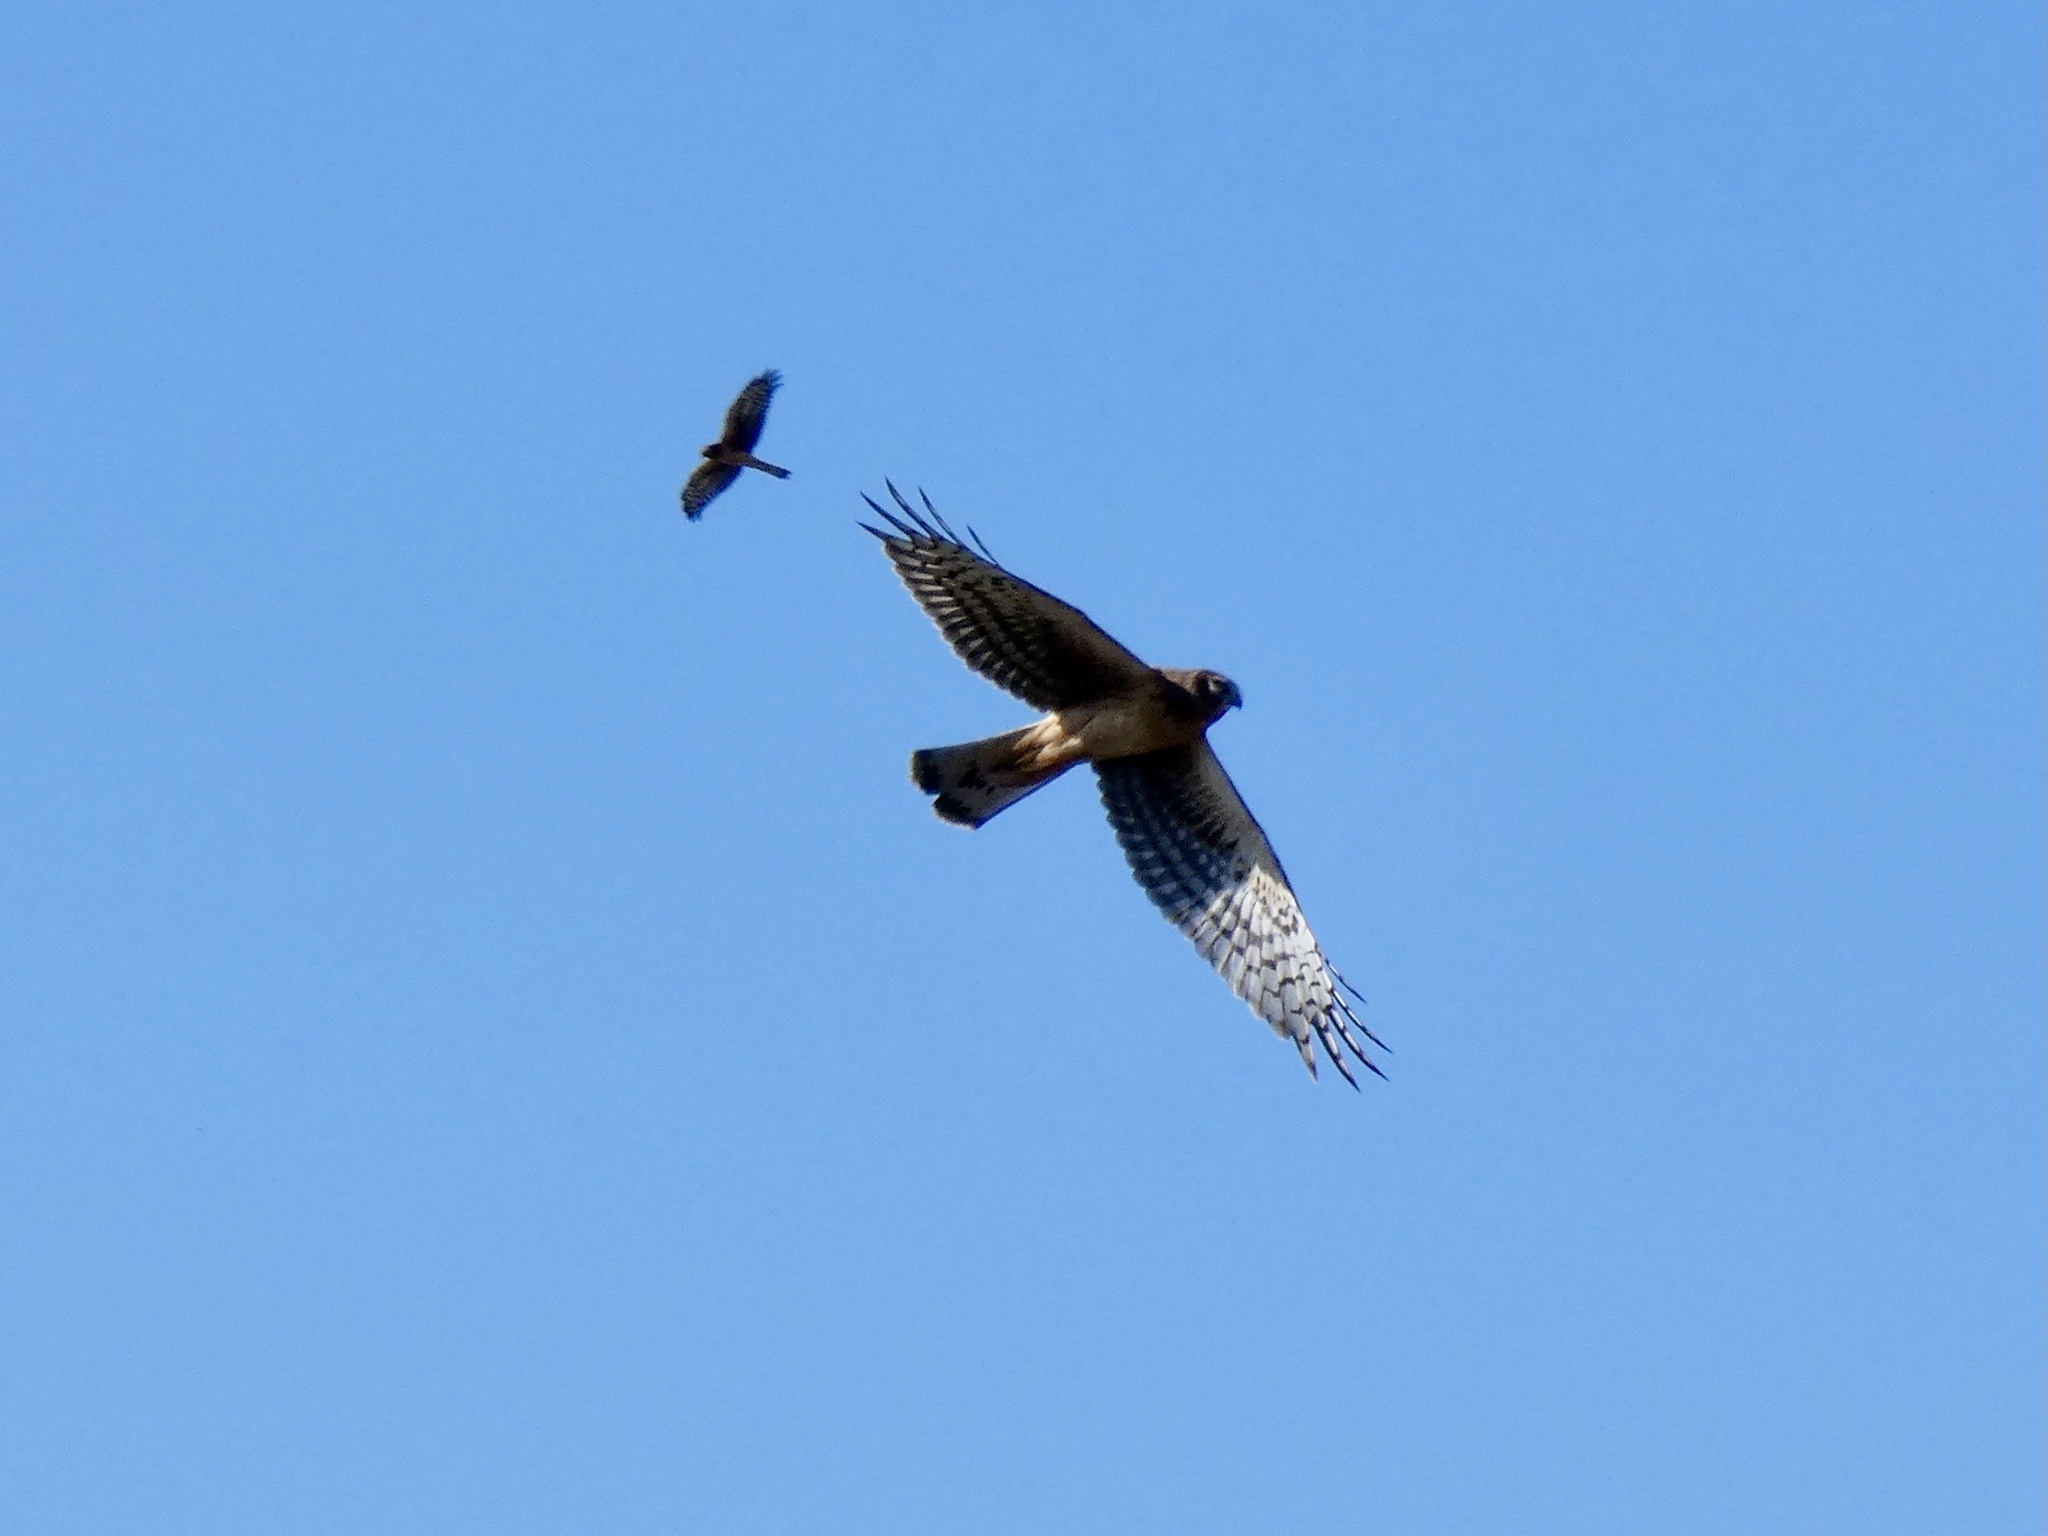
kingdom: Animalia
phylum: Chordata
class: Aves
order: Accipitriformes
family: Accipitridae
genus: Circus
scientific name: Circus cyaneus
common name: Hen harrier
